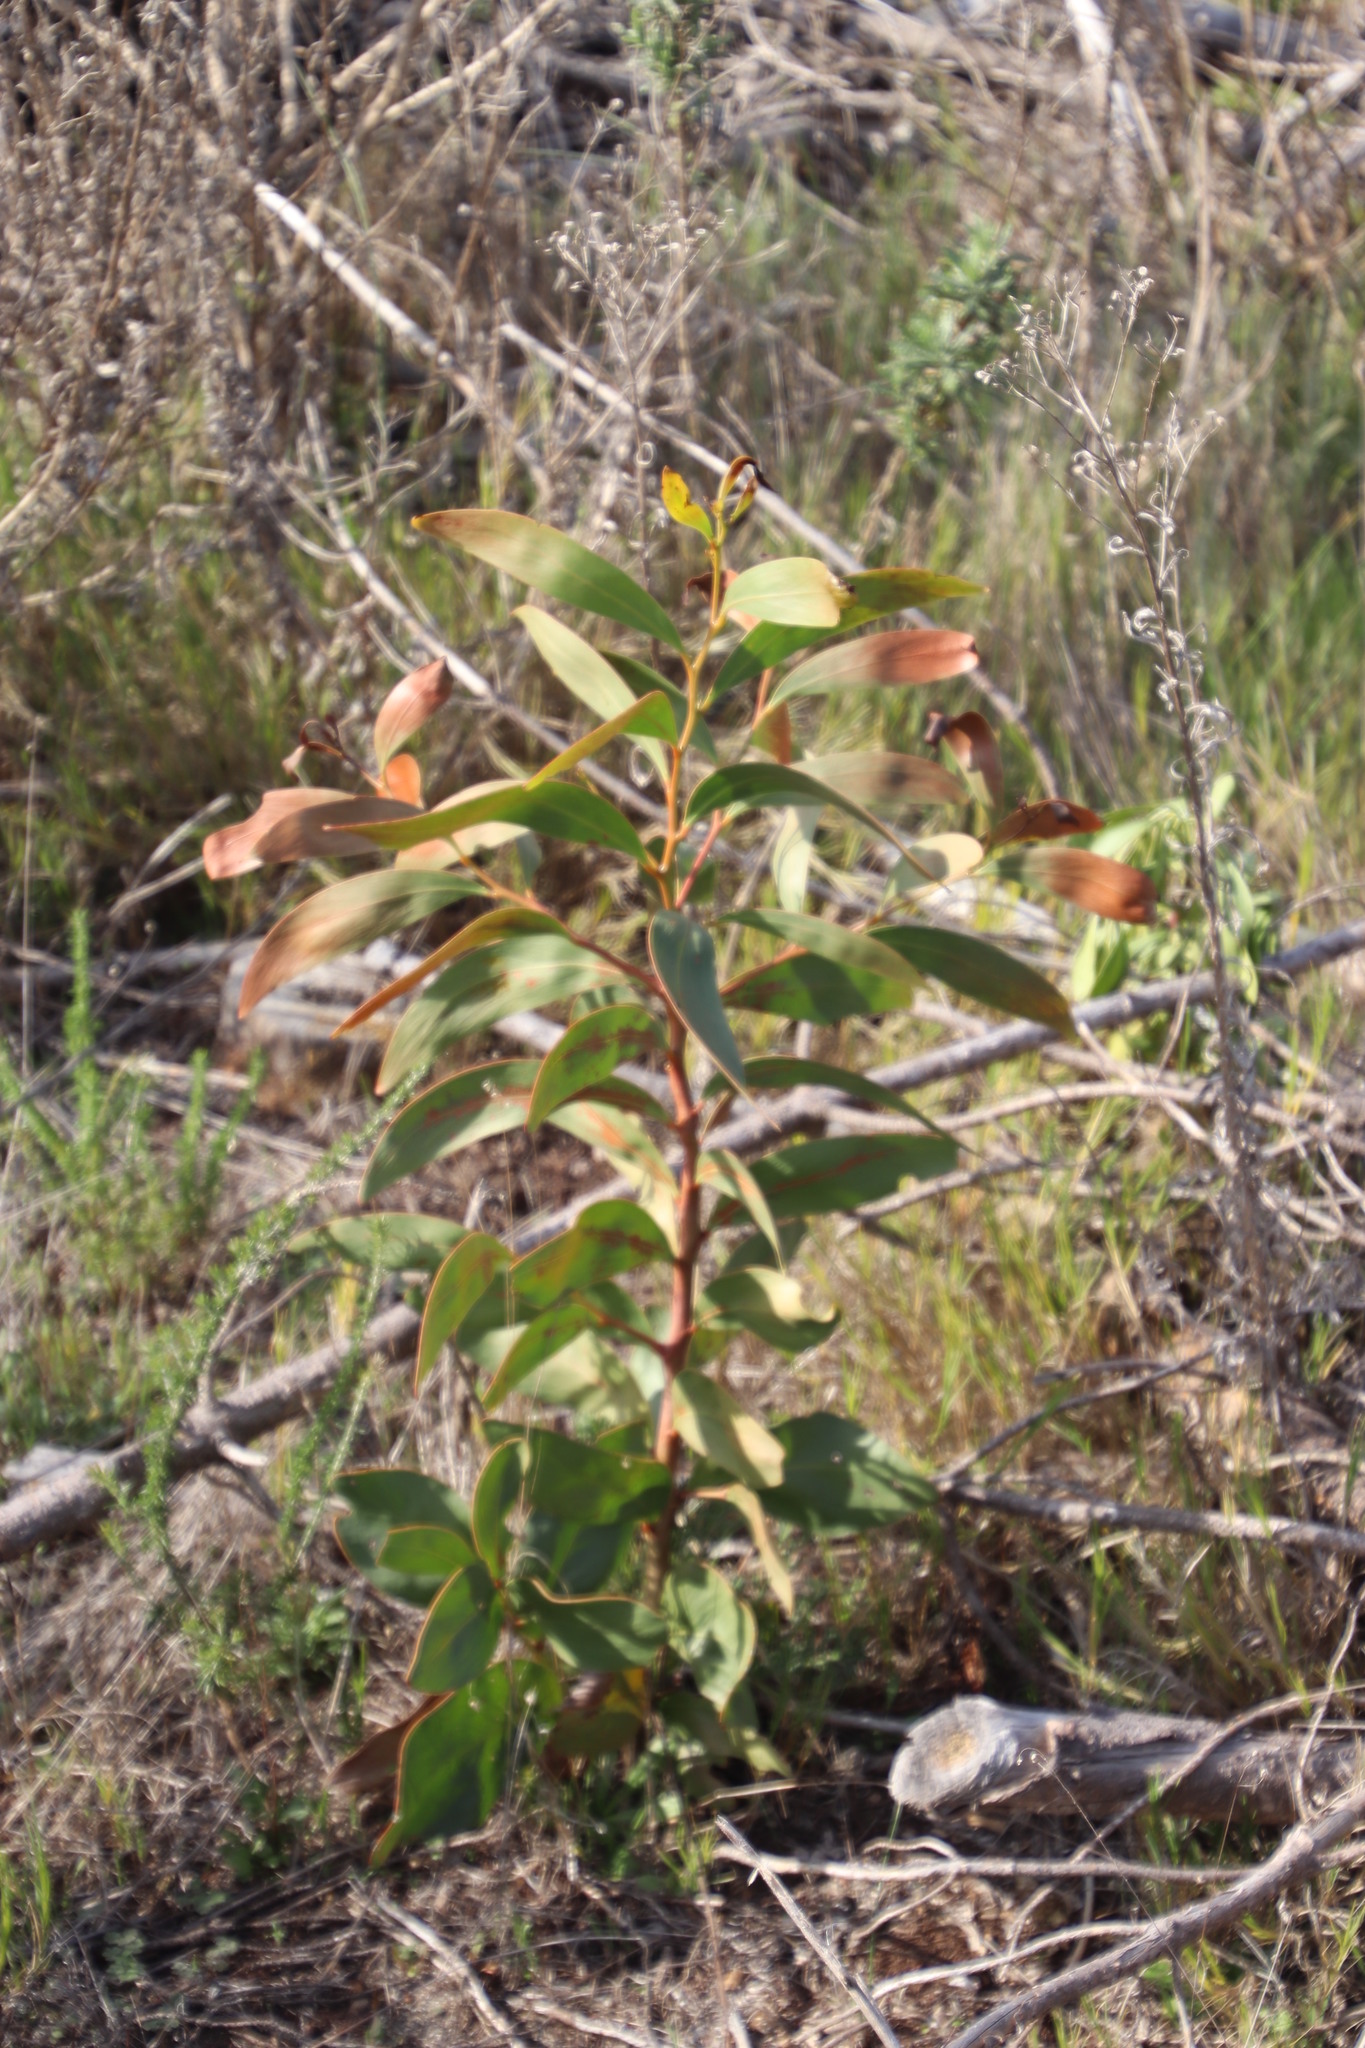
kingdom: Plantae
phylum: Tracheophyta
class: Magnoliopsida
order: Fabales
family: Fabaceae
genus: Acacia
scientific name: Acacia pycnantha
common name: Golden wattle
